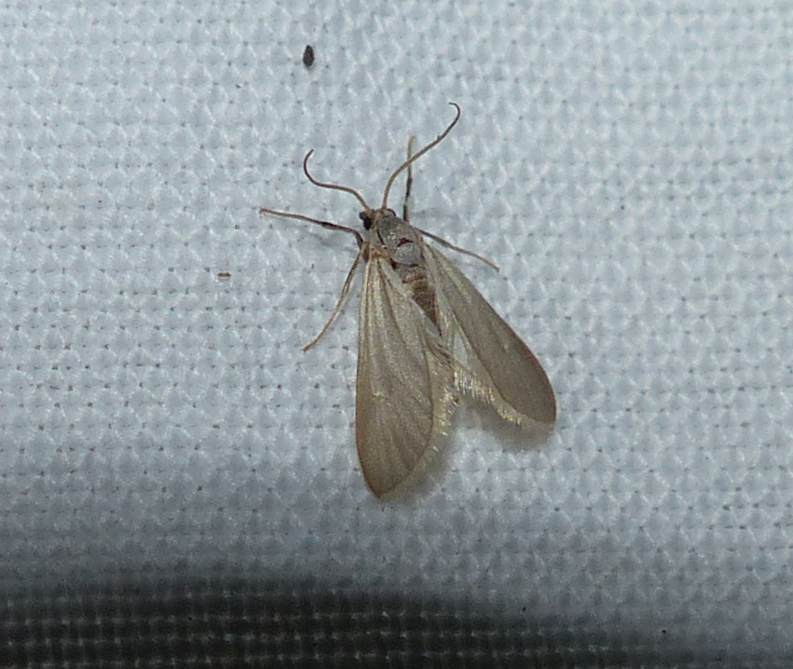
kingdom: Animalia
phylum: Arthropoda
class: Insecta
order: Lepidoptera
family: Crambidae
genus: Acentria
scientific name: Acentria ephemerella
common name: European water moth
